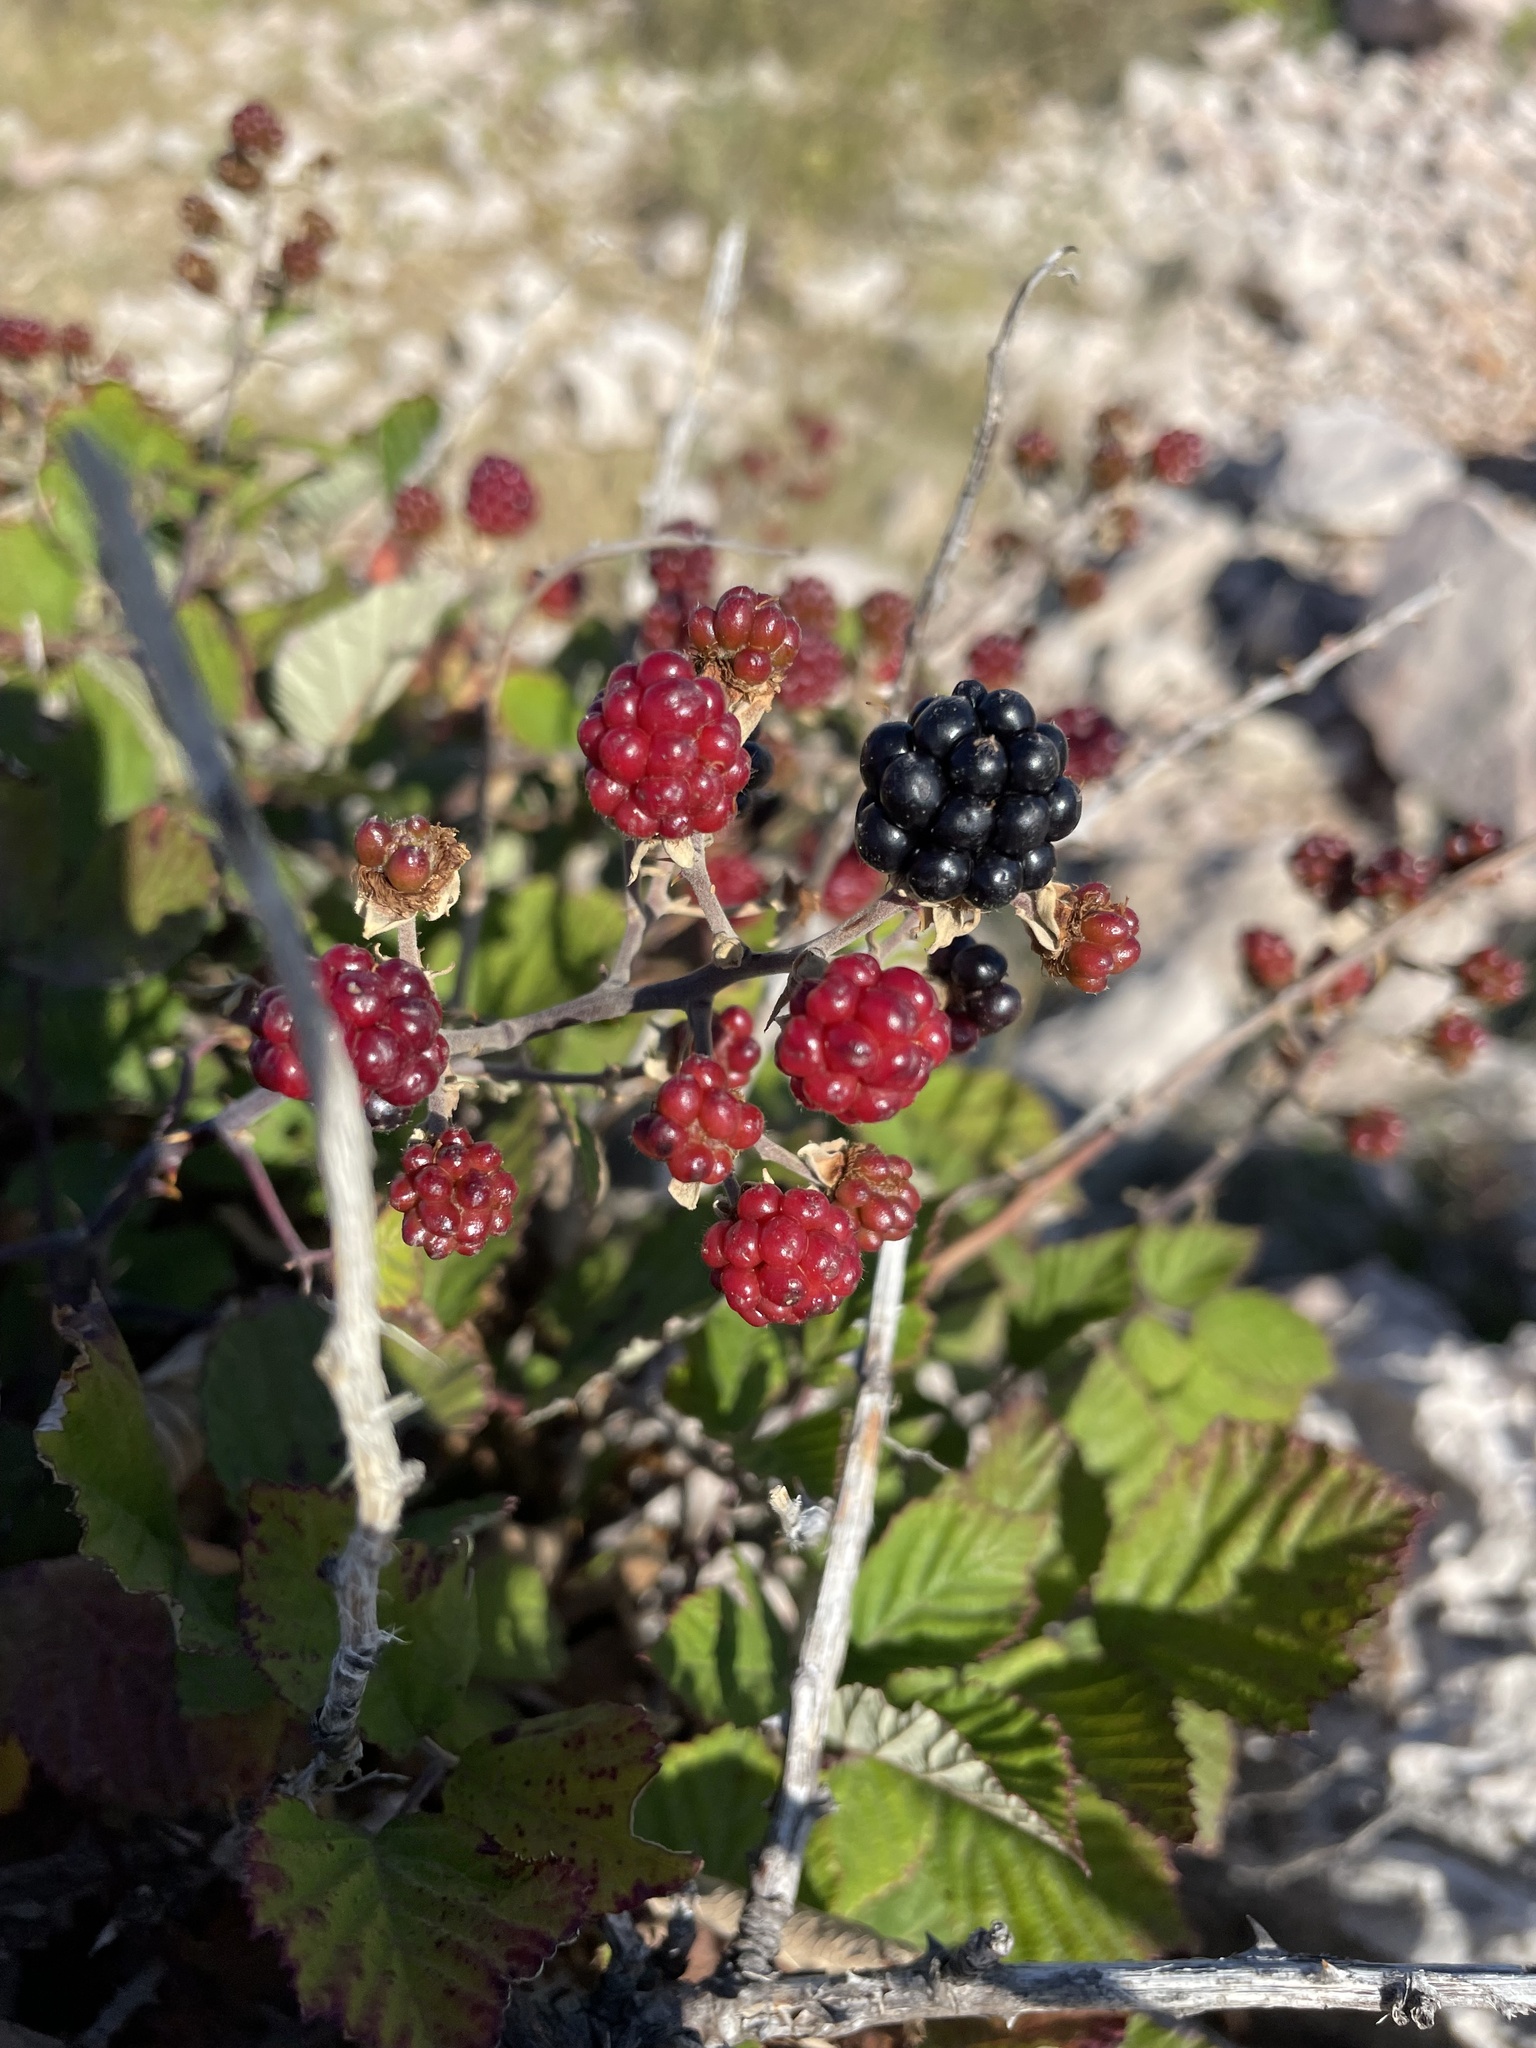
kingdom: Plantae
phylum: Tracheophyta
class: Magnoliopsida
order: Rosales
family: Rosaceae
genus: Rubus
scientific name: Rubus ulmifolius
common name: Elmleaf blackberry
